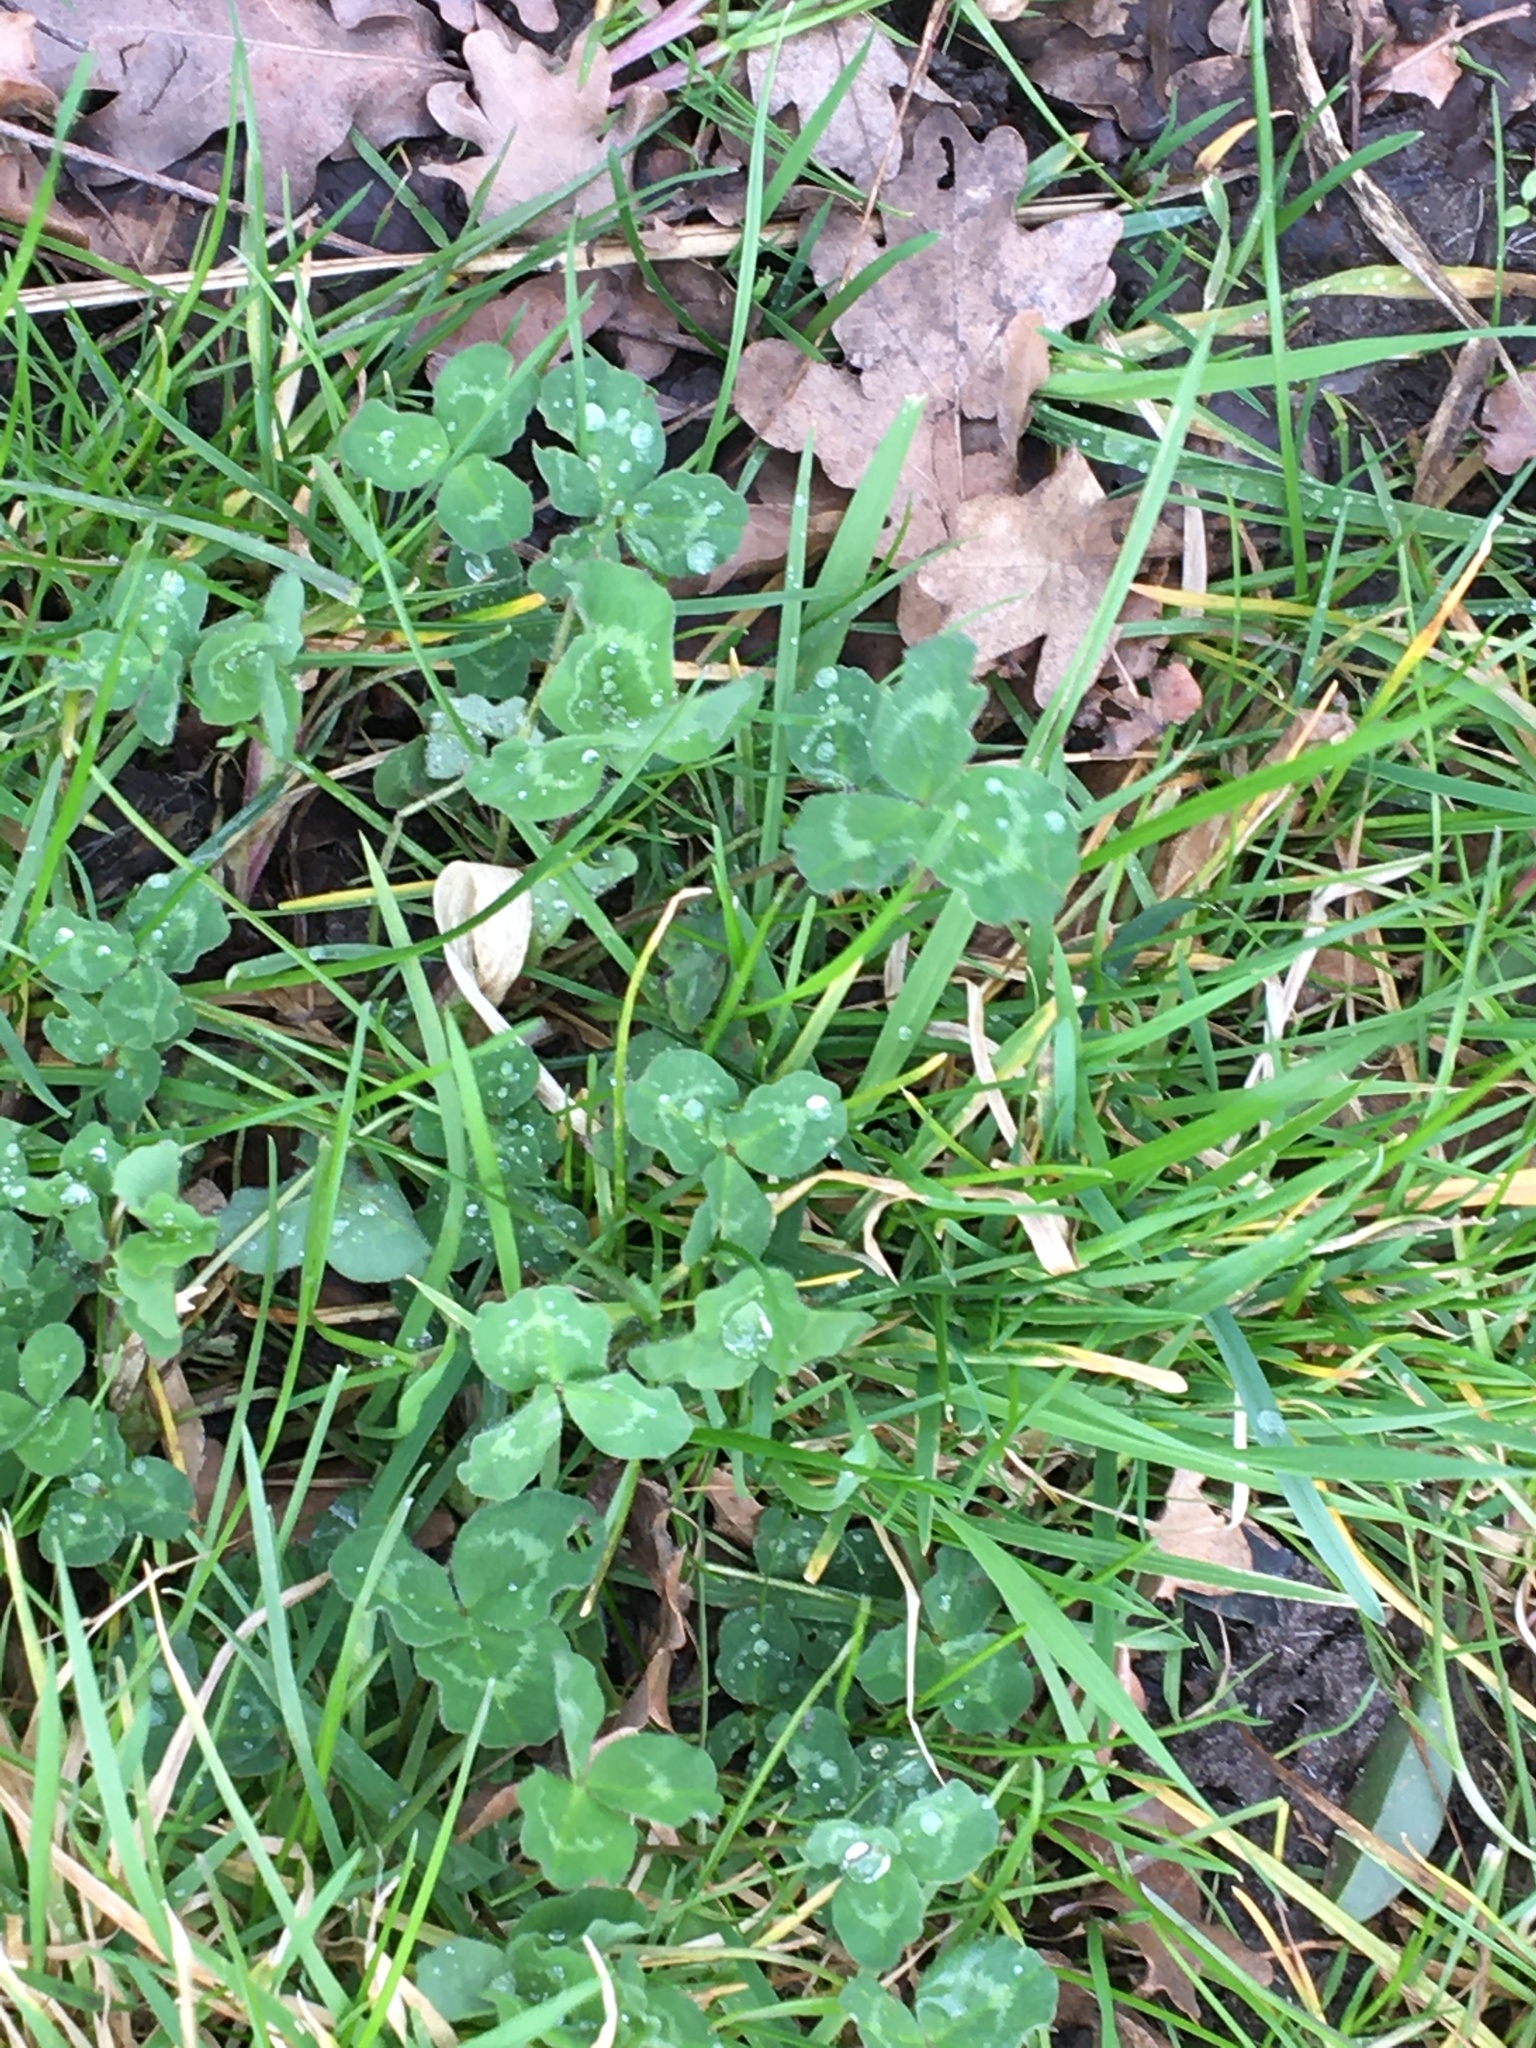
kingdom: Plantae
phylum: Tracheophyta
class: Magnoliopsida
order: Fabales
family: Fabaceae
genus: Trifolium
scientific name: Trifolium pratense
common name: Red clover
